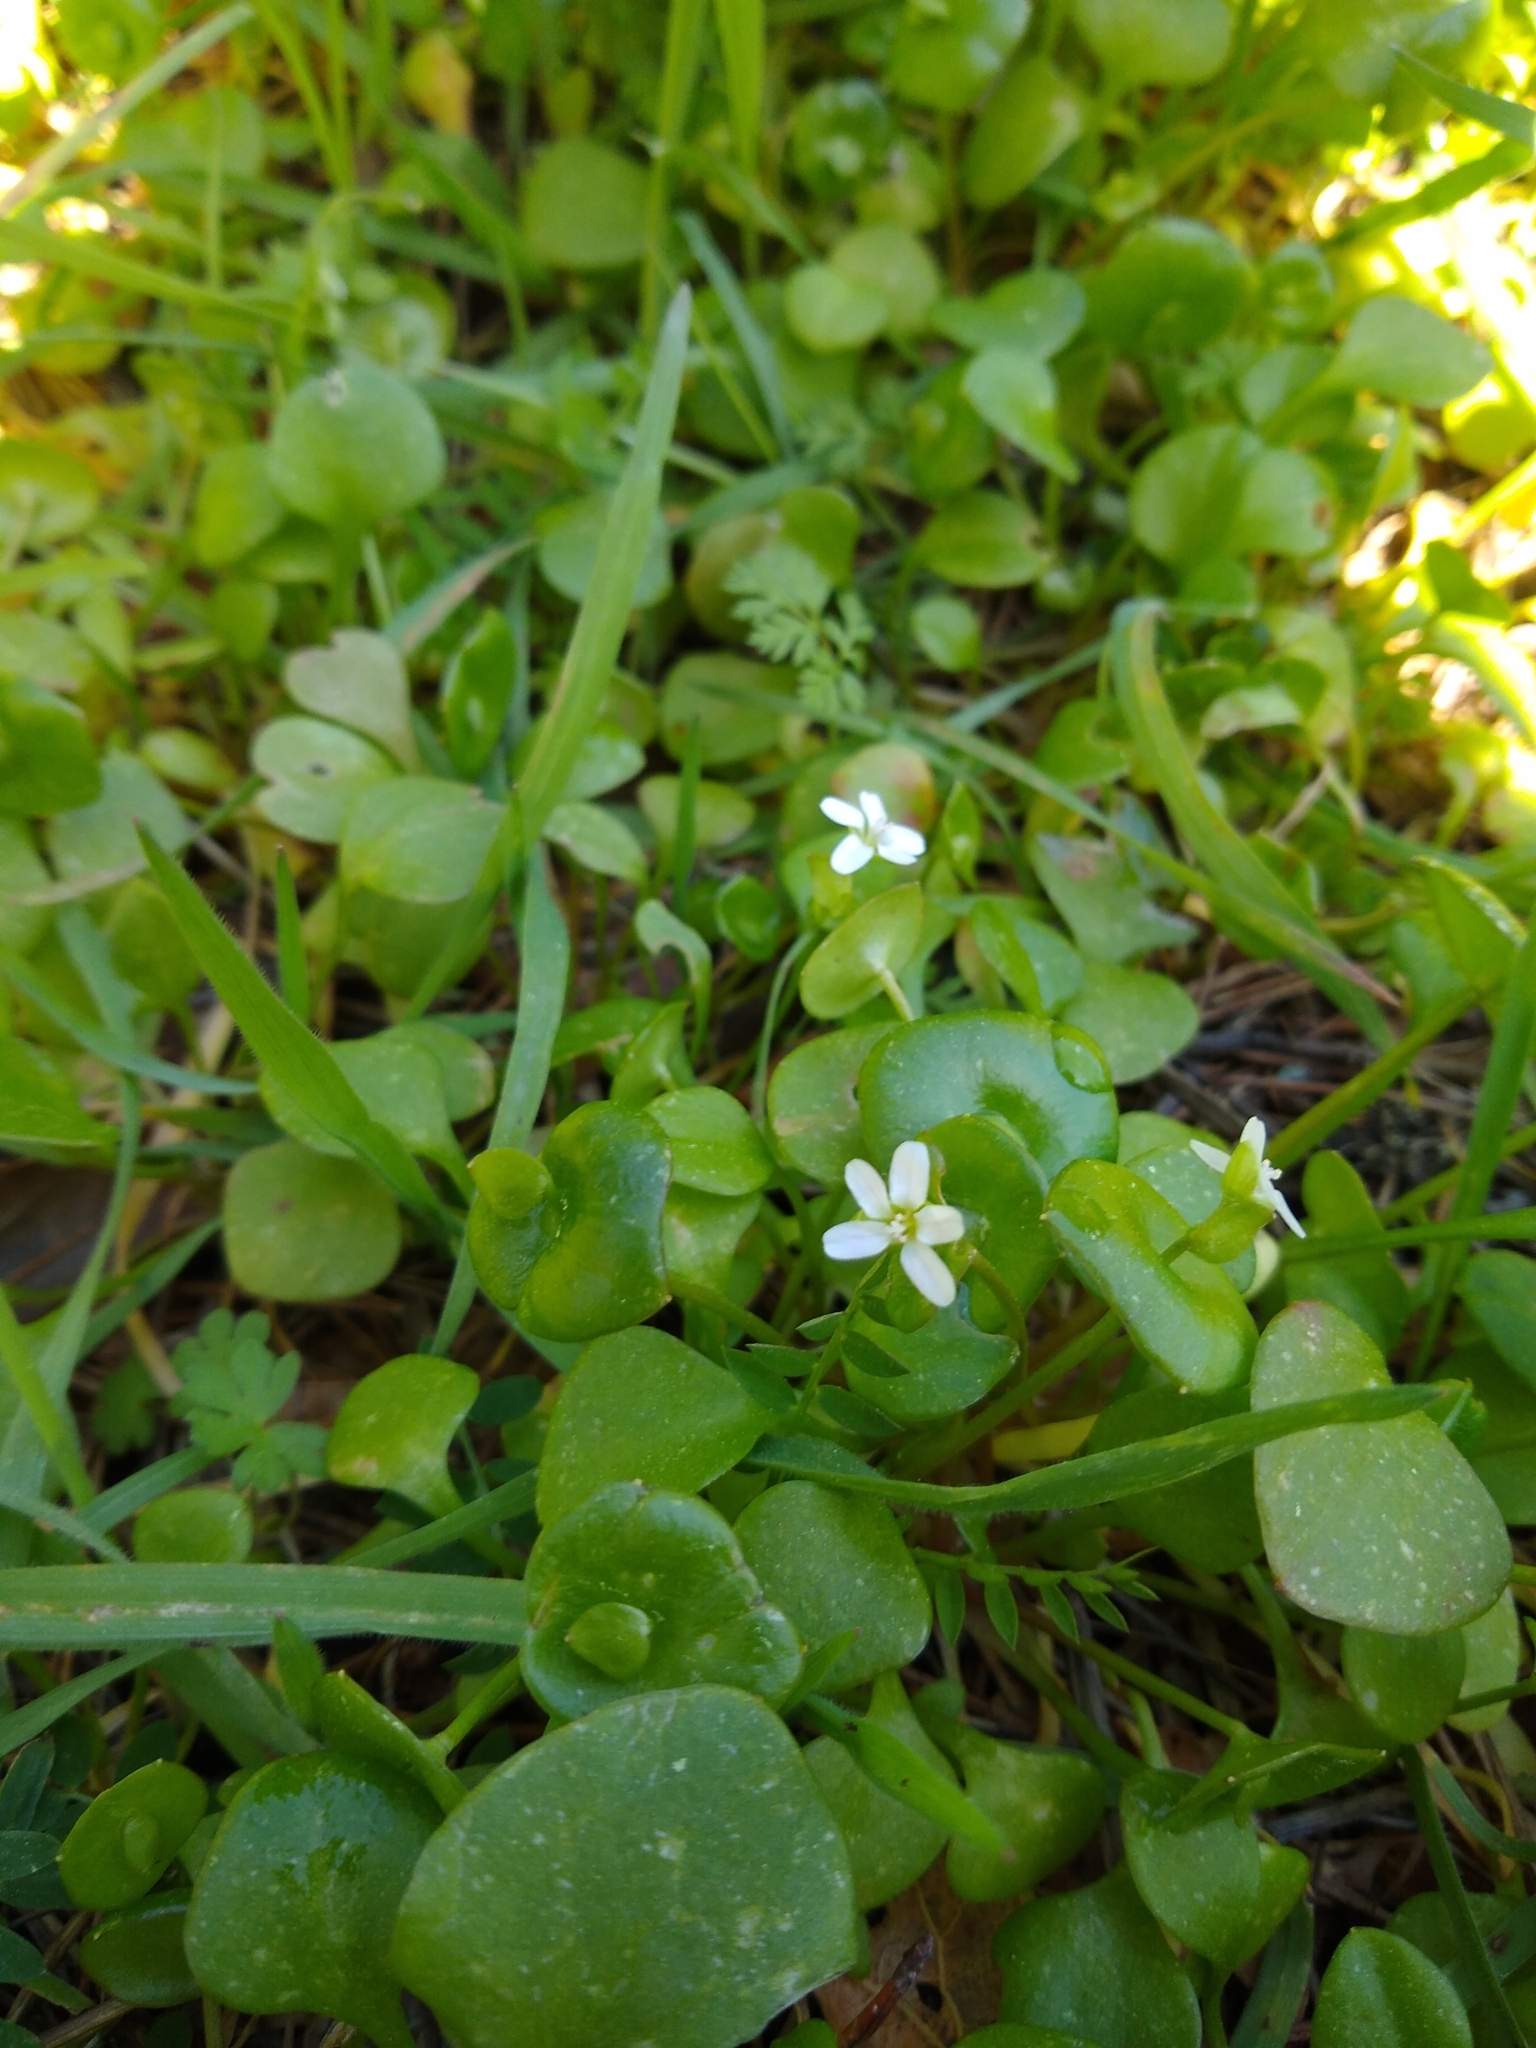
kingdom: Plantae
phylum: Tracheophyta
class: Magnoliopsida
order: Caryophyllales
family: Montiaceae
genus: Claytonia
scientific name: Claytonia perfoliata
